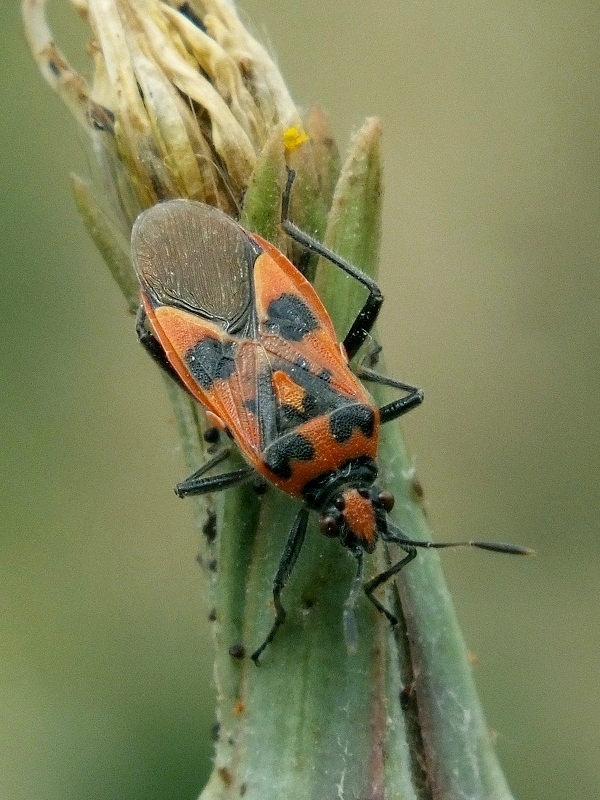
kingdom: Animalia
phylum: Arthropoda
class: Insecta
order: Hemiptera
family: Rhopalidae
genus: Corizus
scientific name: Corizus hyoscyami
